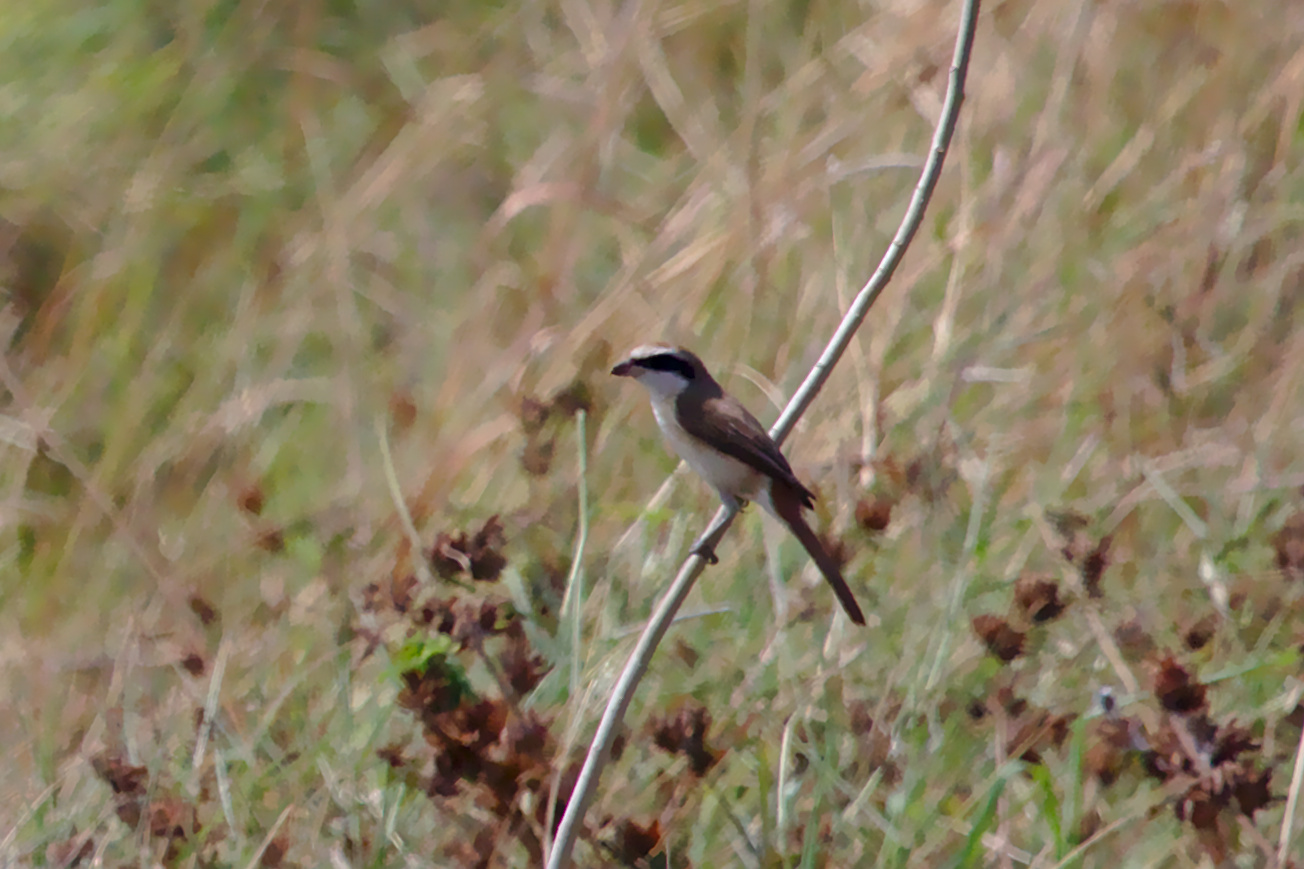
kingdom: Animalia
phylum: Chordata
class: Aves
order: Passeriformes
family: Laniidae
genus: Lanius
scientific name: Lanius cristatus
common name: Brown shrike
